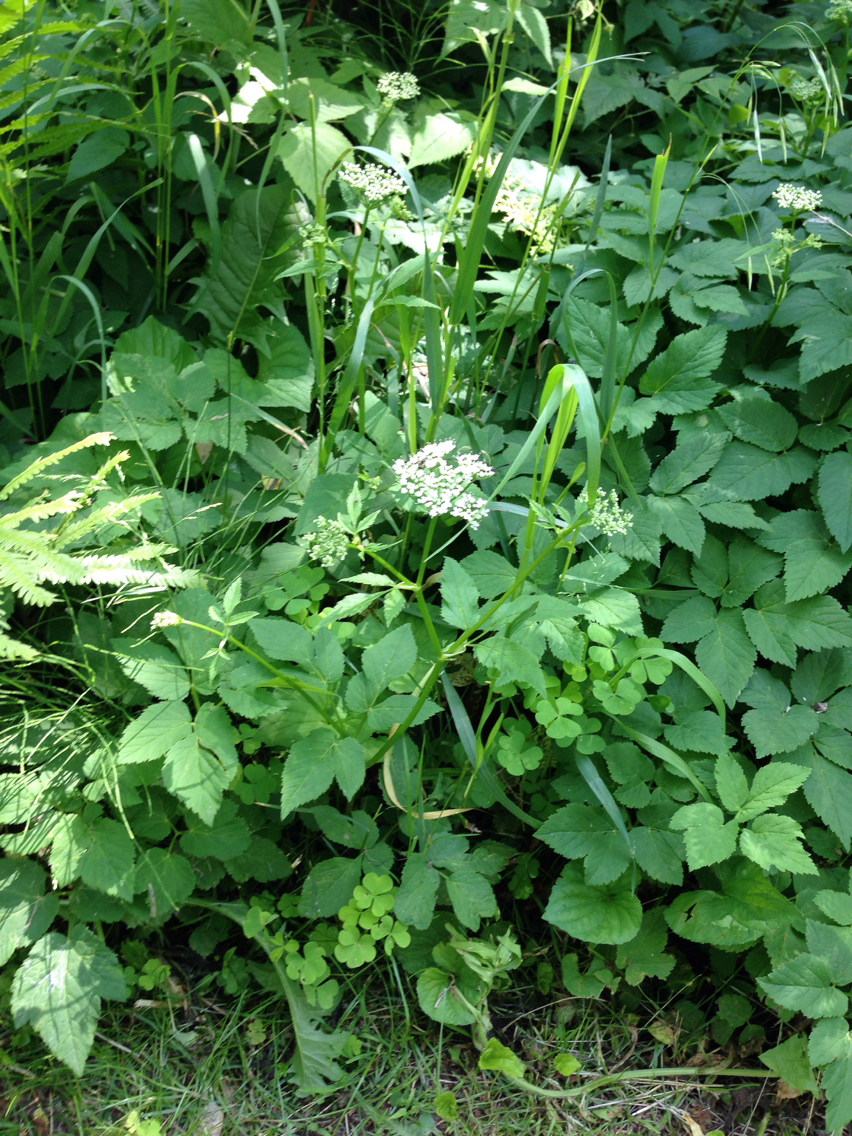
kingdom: Plantae
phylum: Tracheophyta
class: Magnoliopsida
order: Apiales
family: Apiaceae
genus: Aegopodium
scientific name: Aegopodium podagraria
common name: Ground-elder
